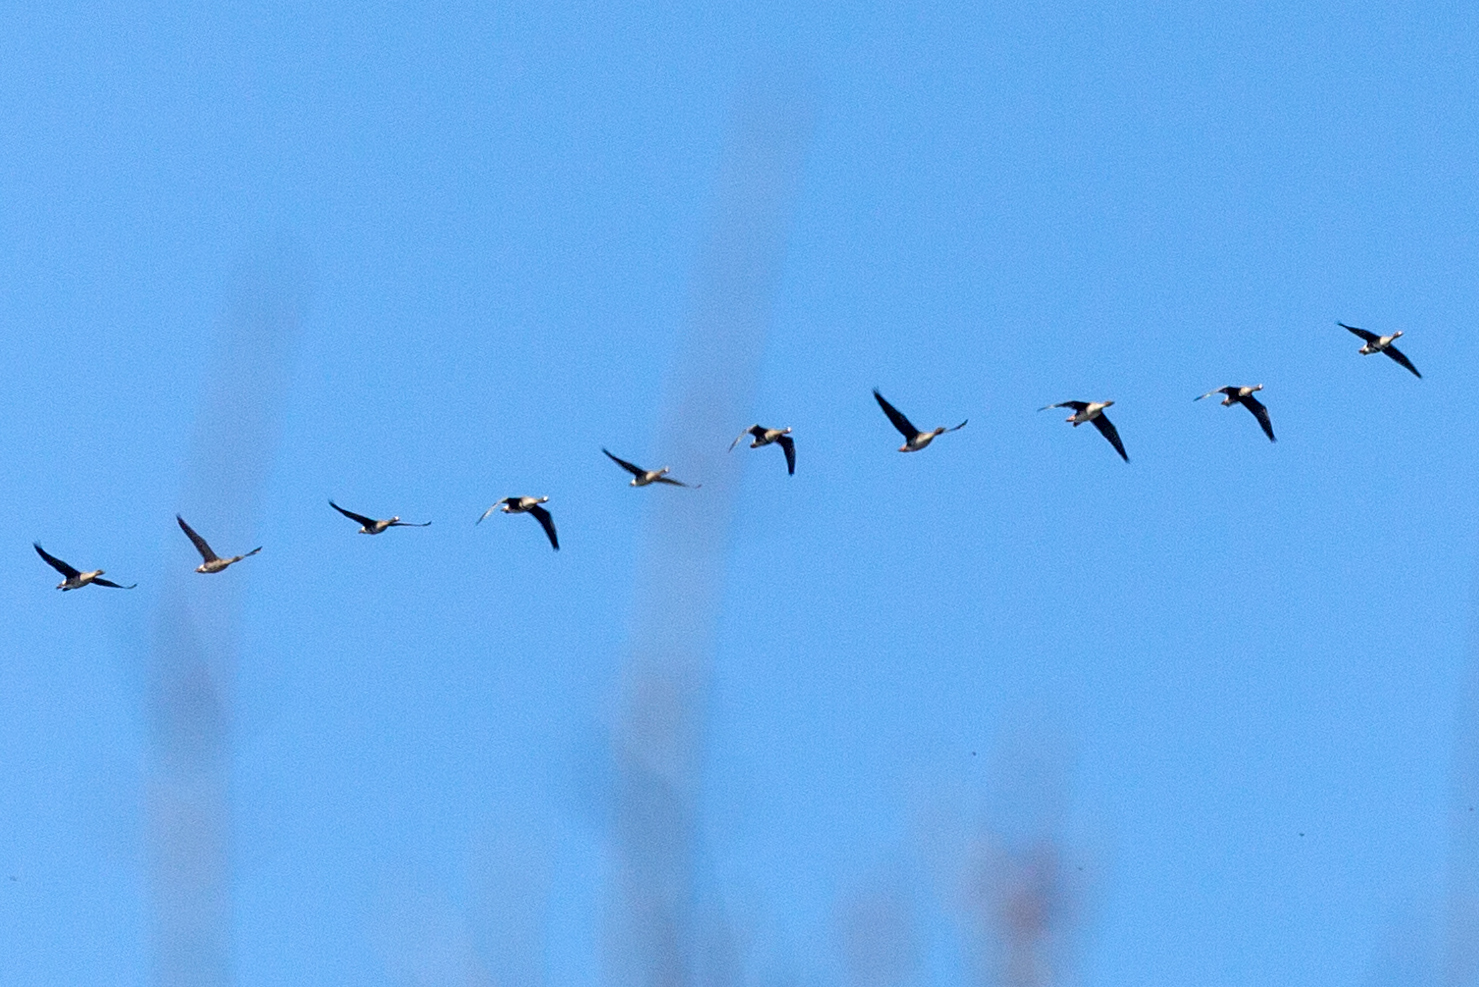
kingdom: Animalia
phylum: Chordata
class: Aves
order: Anseriformes
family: Anatidae
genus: Anser
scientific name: Anser albifrons
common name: Greater white-fronted goose
